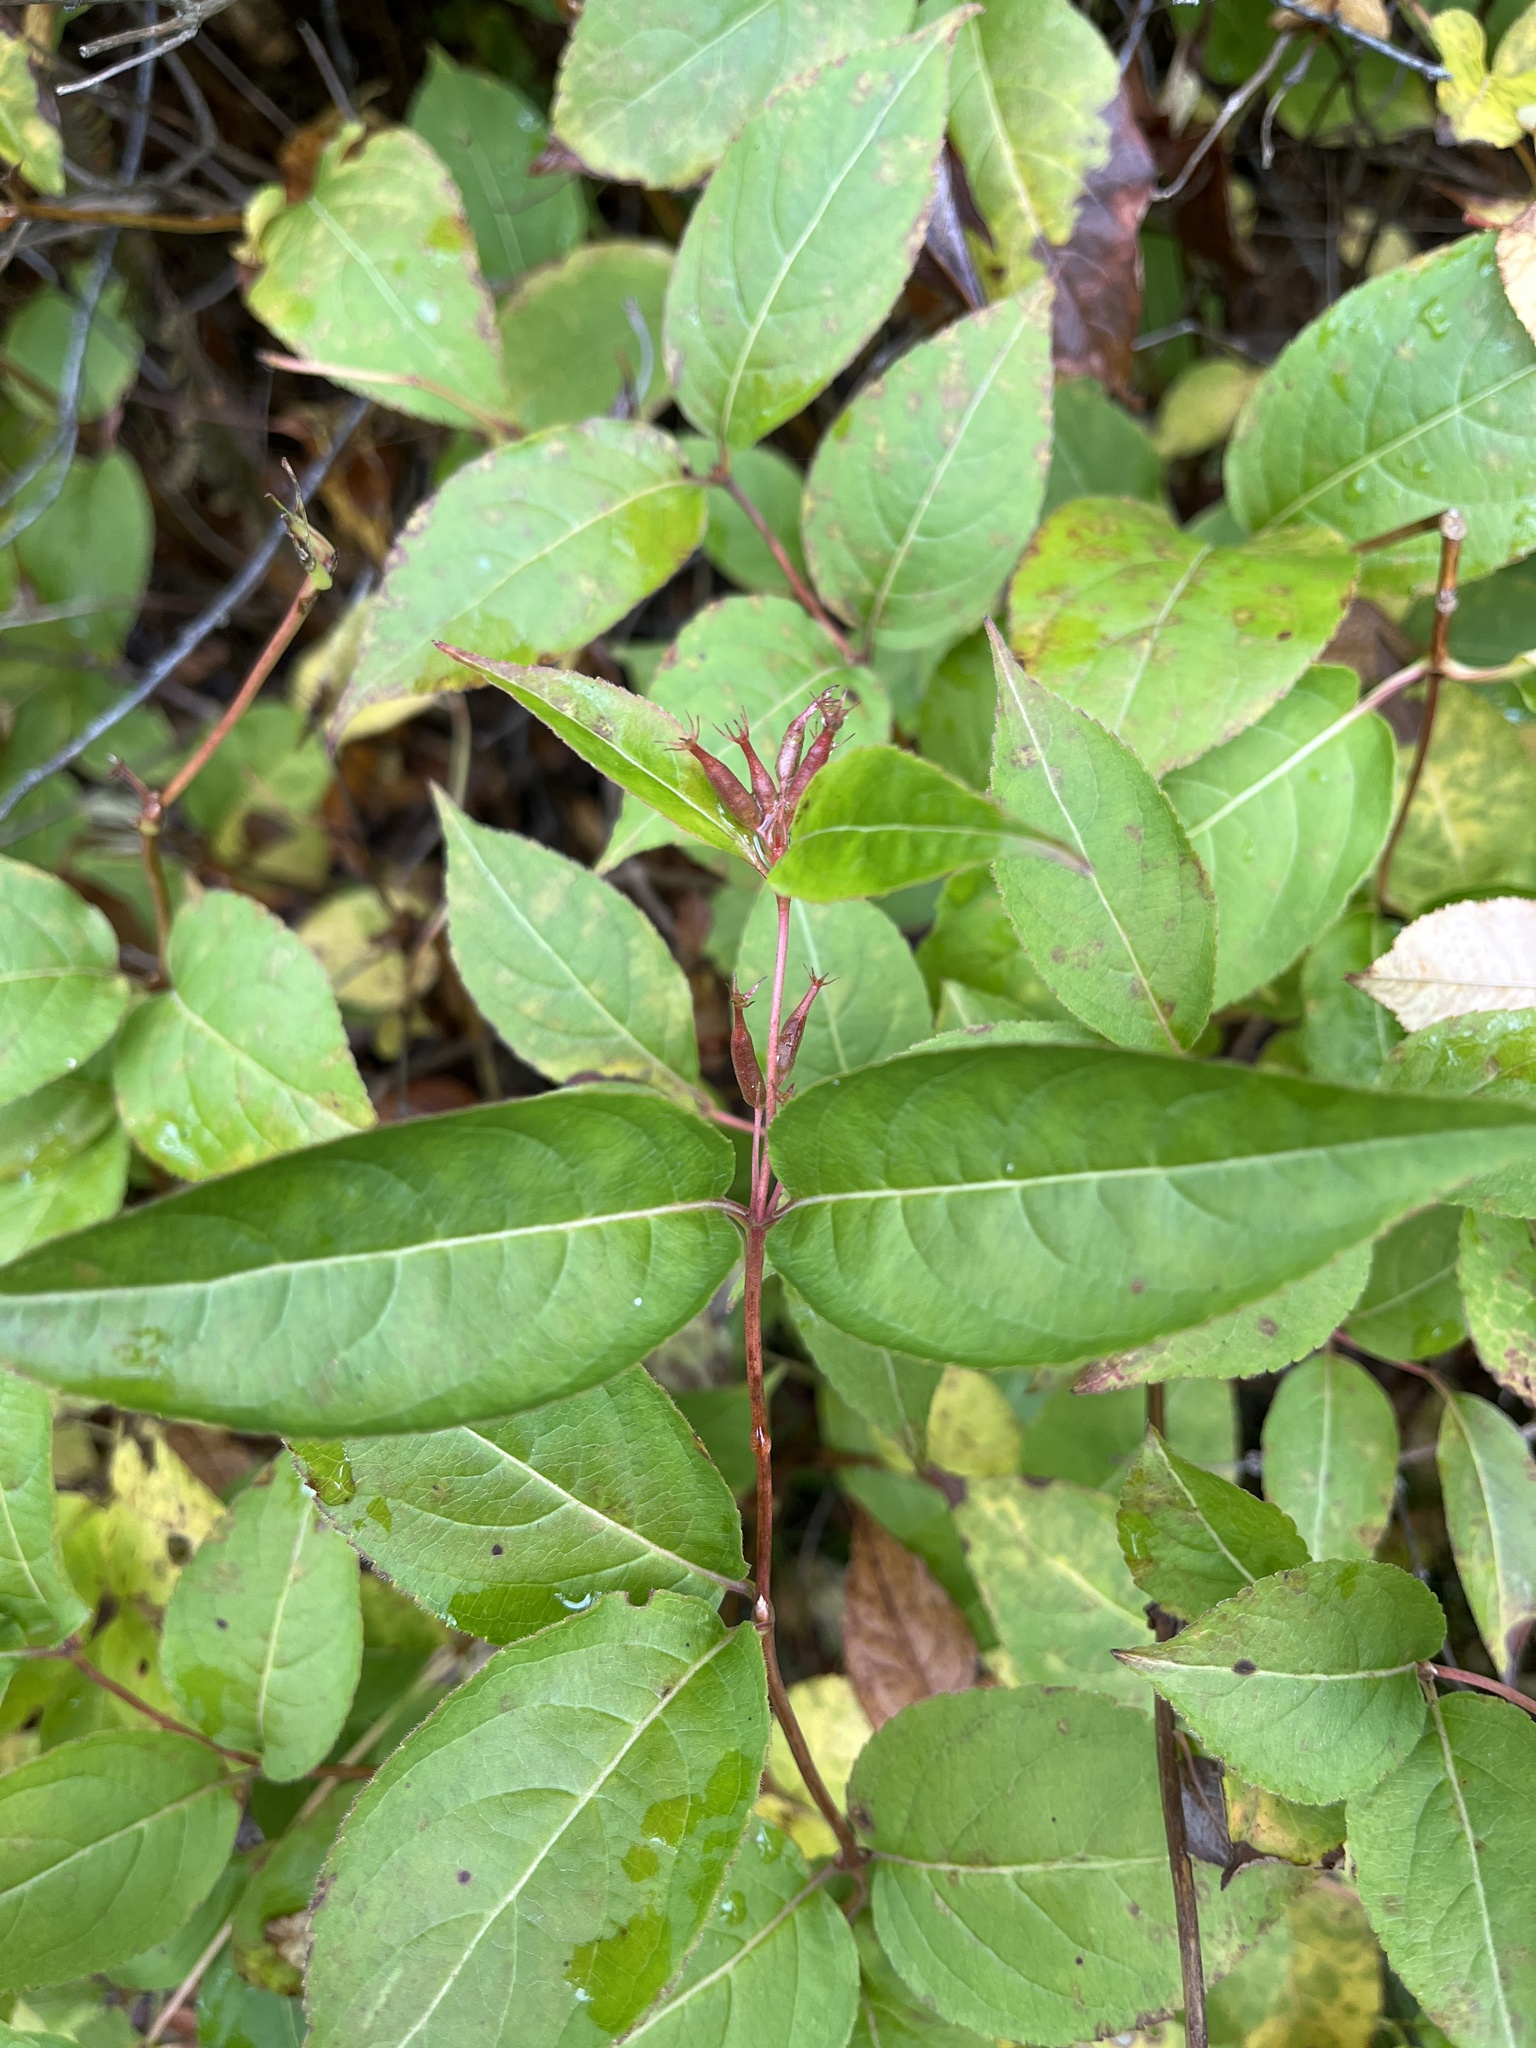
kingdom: Plantae
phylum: Tracheophyta
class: Magnoliopsida
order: Dipsacales
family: Caprifoliaceae
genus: Diervilla
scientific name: Diervilla lonicera
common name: Bush-honeysuckle
